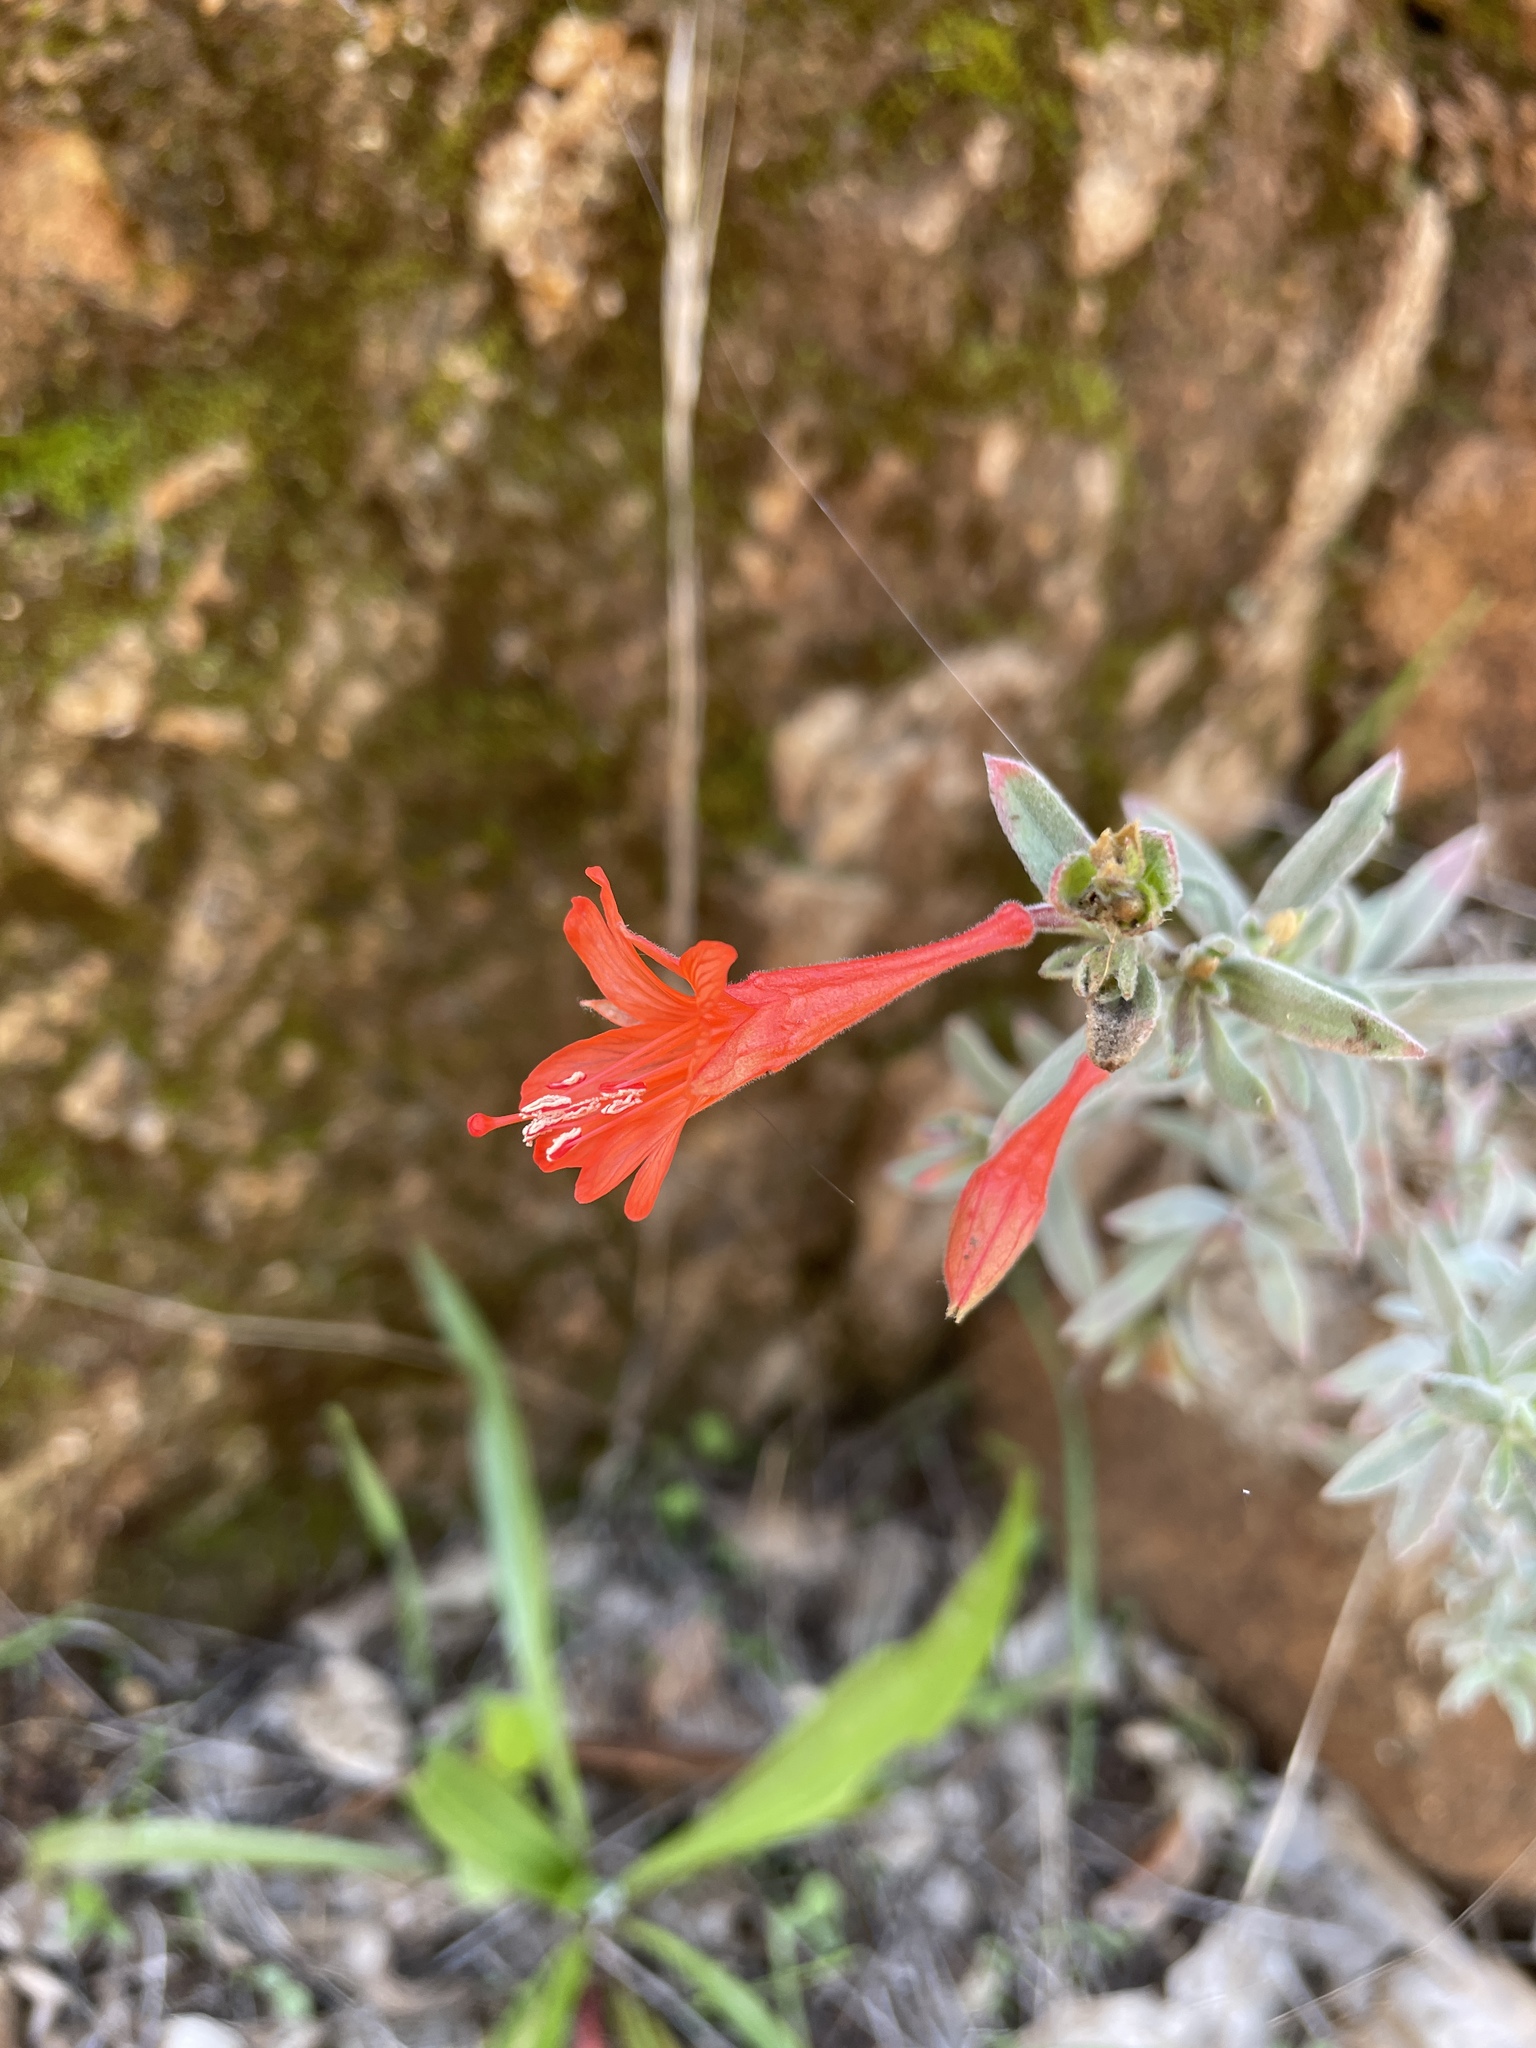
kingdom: Plantae
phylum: Tracheophyta
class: Magnoliopsida
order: Myrtales
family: Onagraceae
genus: Epilobium
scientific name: Epilobium canum
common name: California-fuchsia
